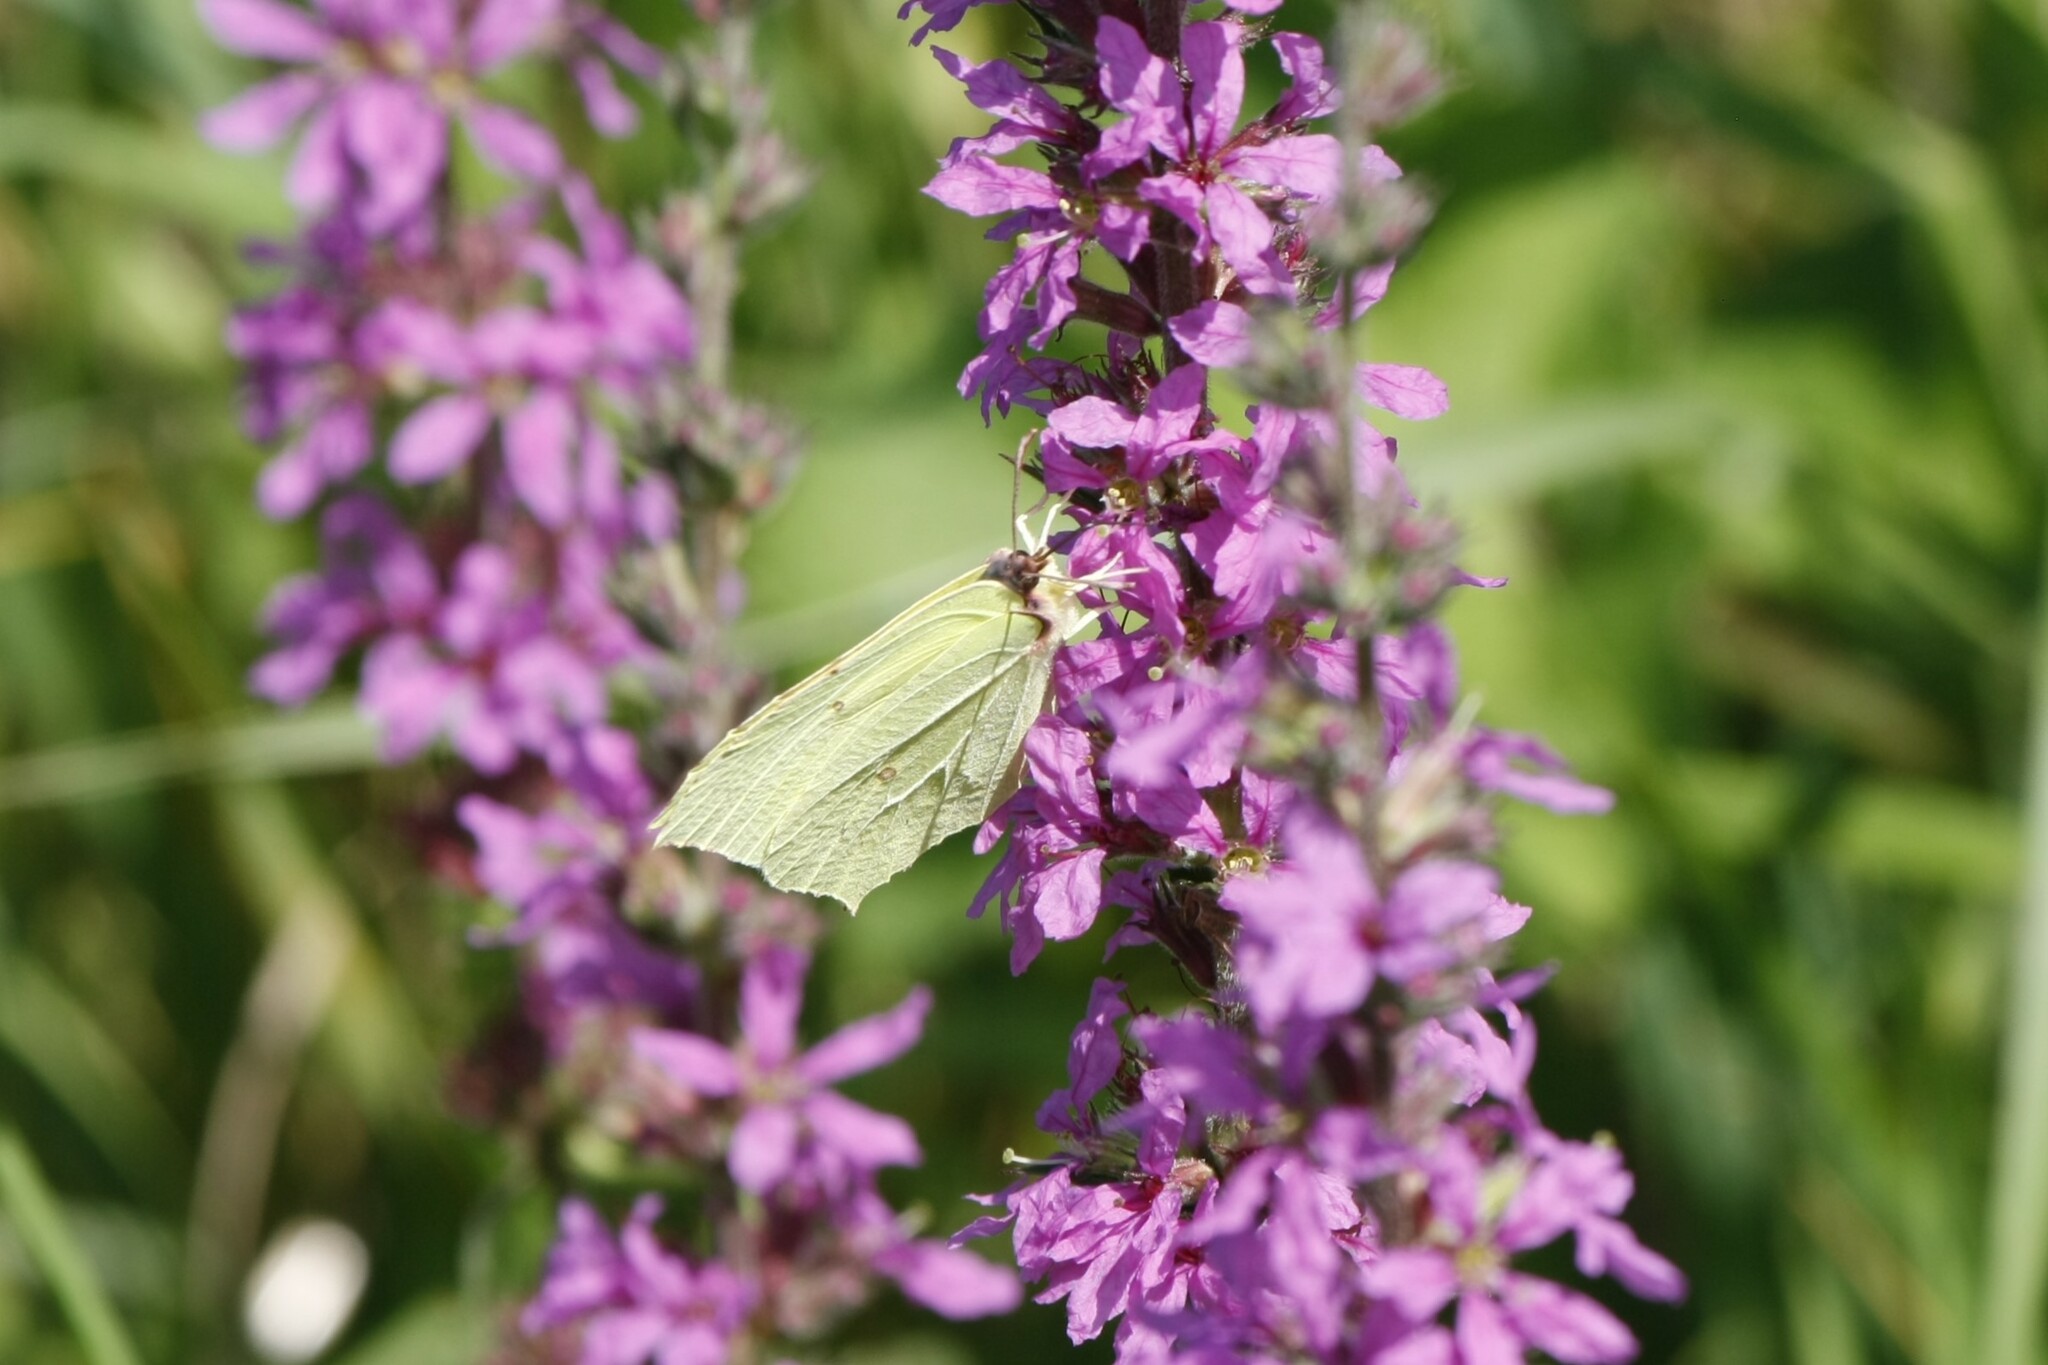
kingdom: Animalia
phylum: Arthropoda
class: Insecta
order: Lepidoptera
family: Pieridae
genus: Gonepteryx
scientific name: Gonepteryx rhamni
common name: Brimstone
